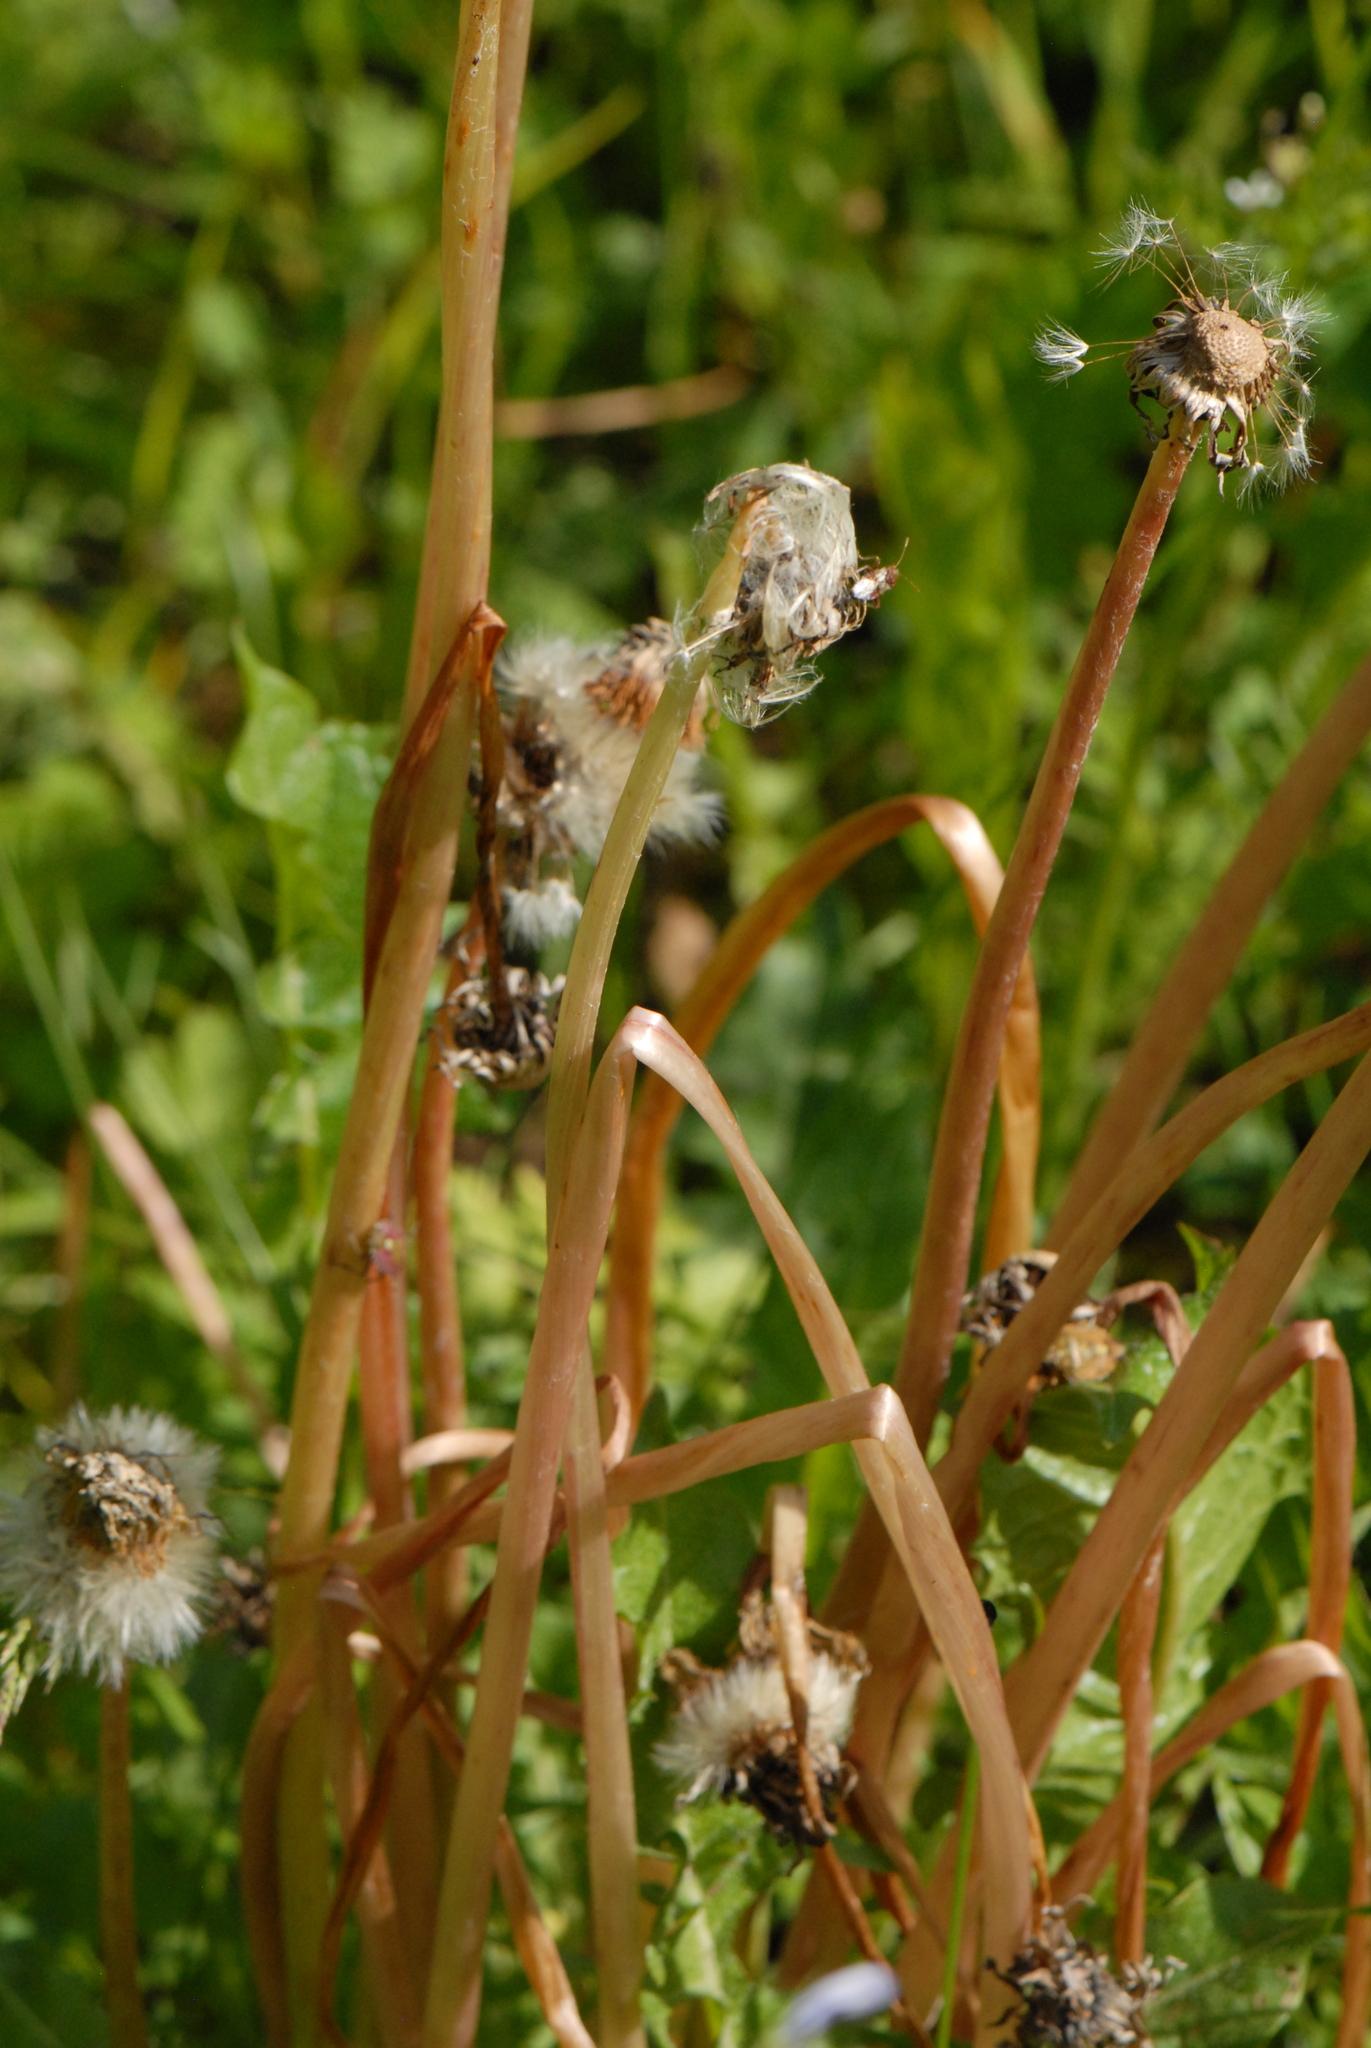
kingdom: Plantae
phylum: Tracheophyta
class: Magnoliopsida
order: Asterales
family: Asteraceae
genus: Taraxacum
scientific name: Taraxacum officinale
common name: Common dandelion
